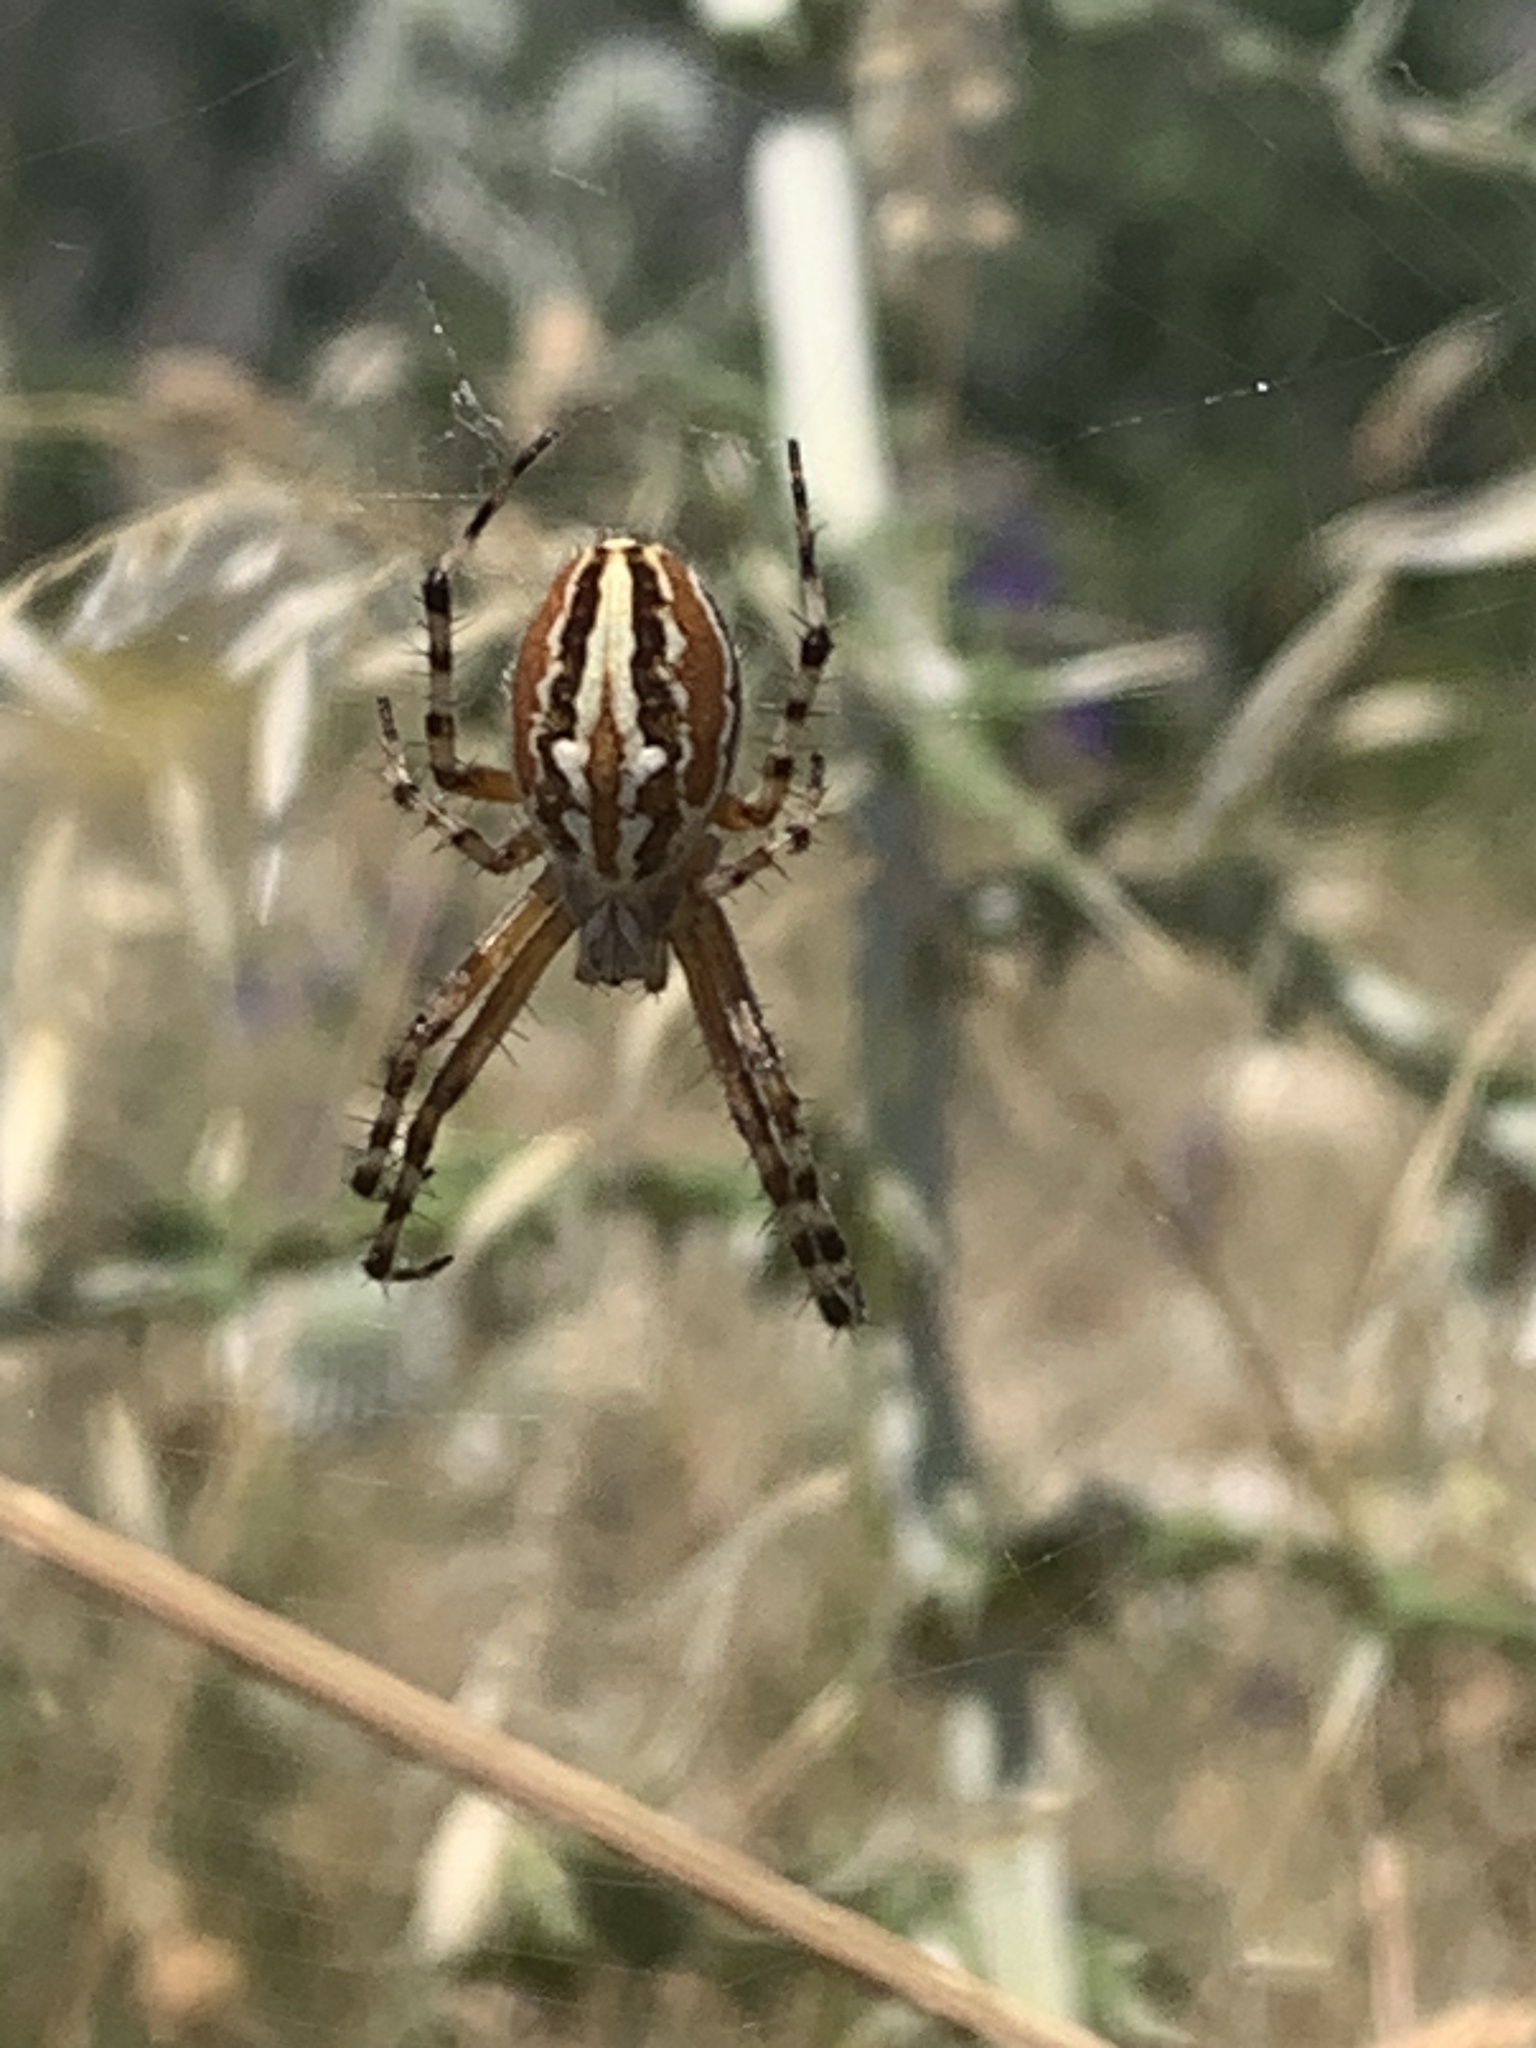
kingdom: Animalia
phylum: Arthropoda
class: Arachnida
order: Araneae
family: Araneidae
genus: Aculepeira
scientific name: Aculepeira armida
